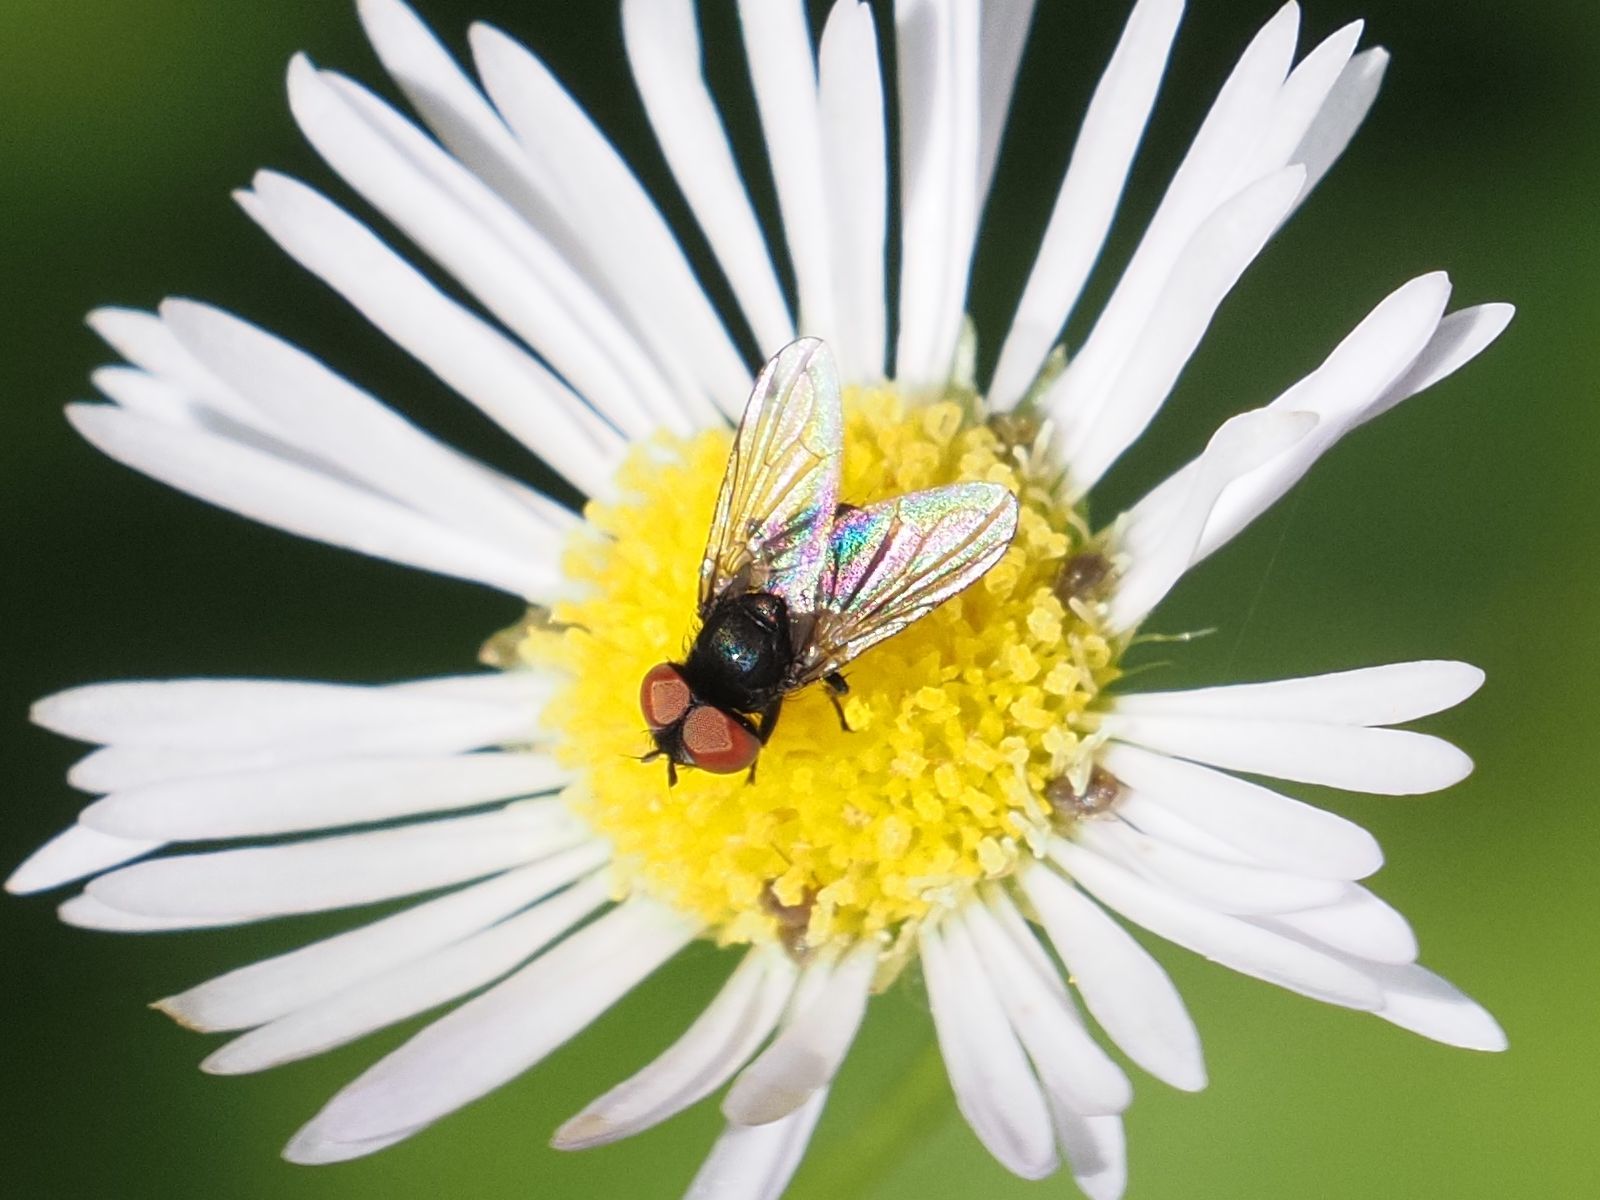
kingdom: Animalia
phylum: Arthropoda
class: Insecta
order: Diptera
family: Tachinidae
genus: Phasia
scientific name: Phasia barbifrons
